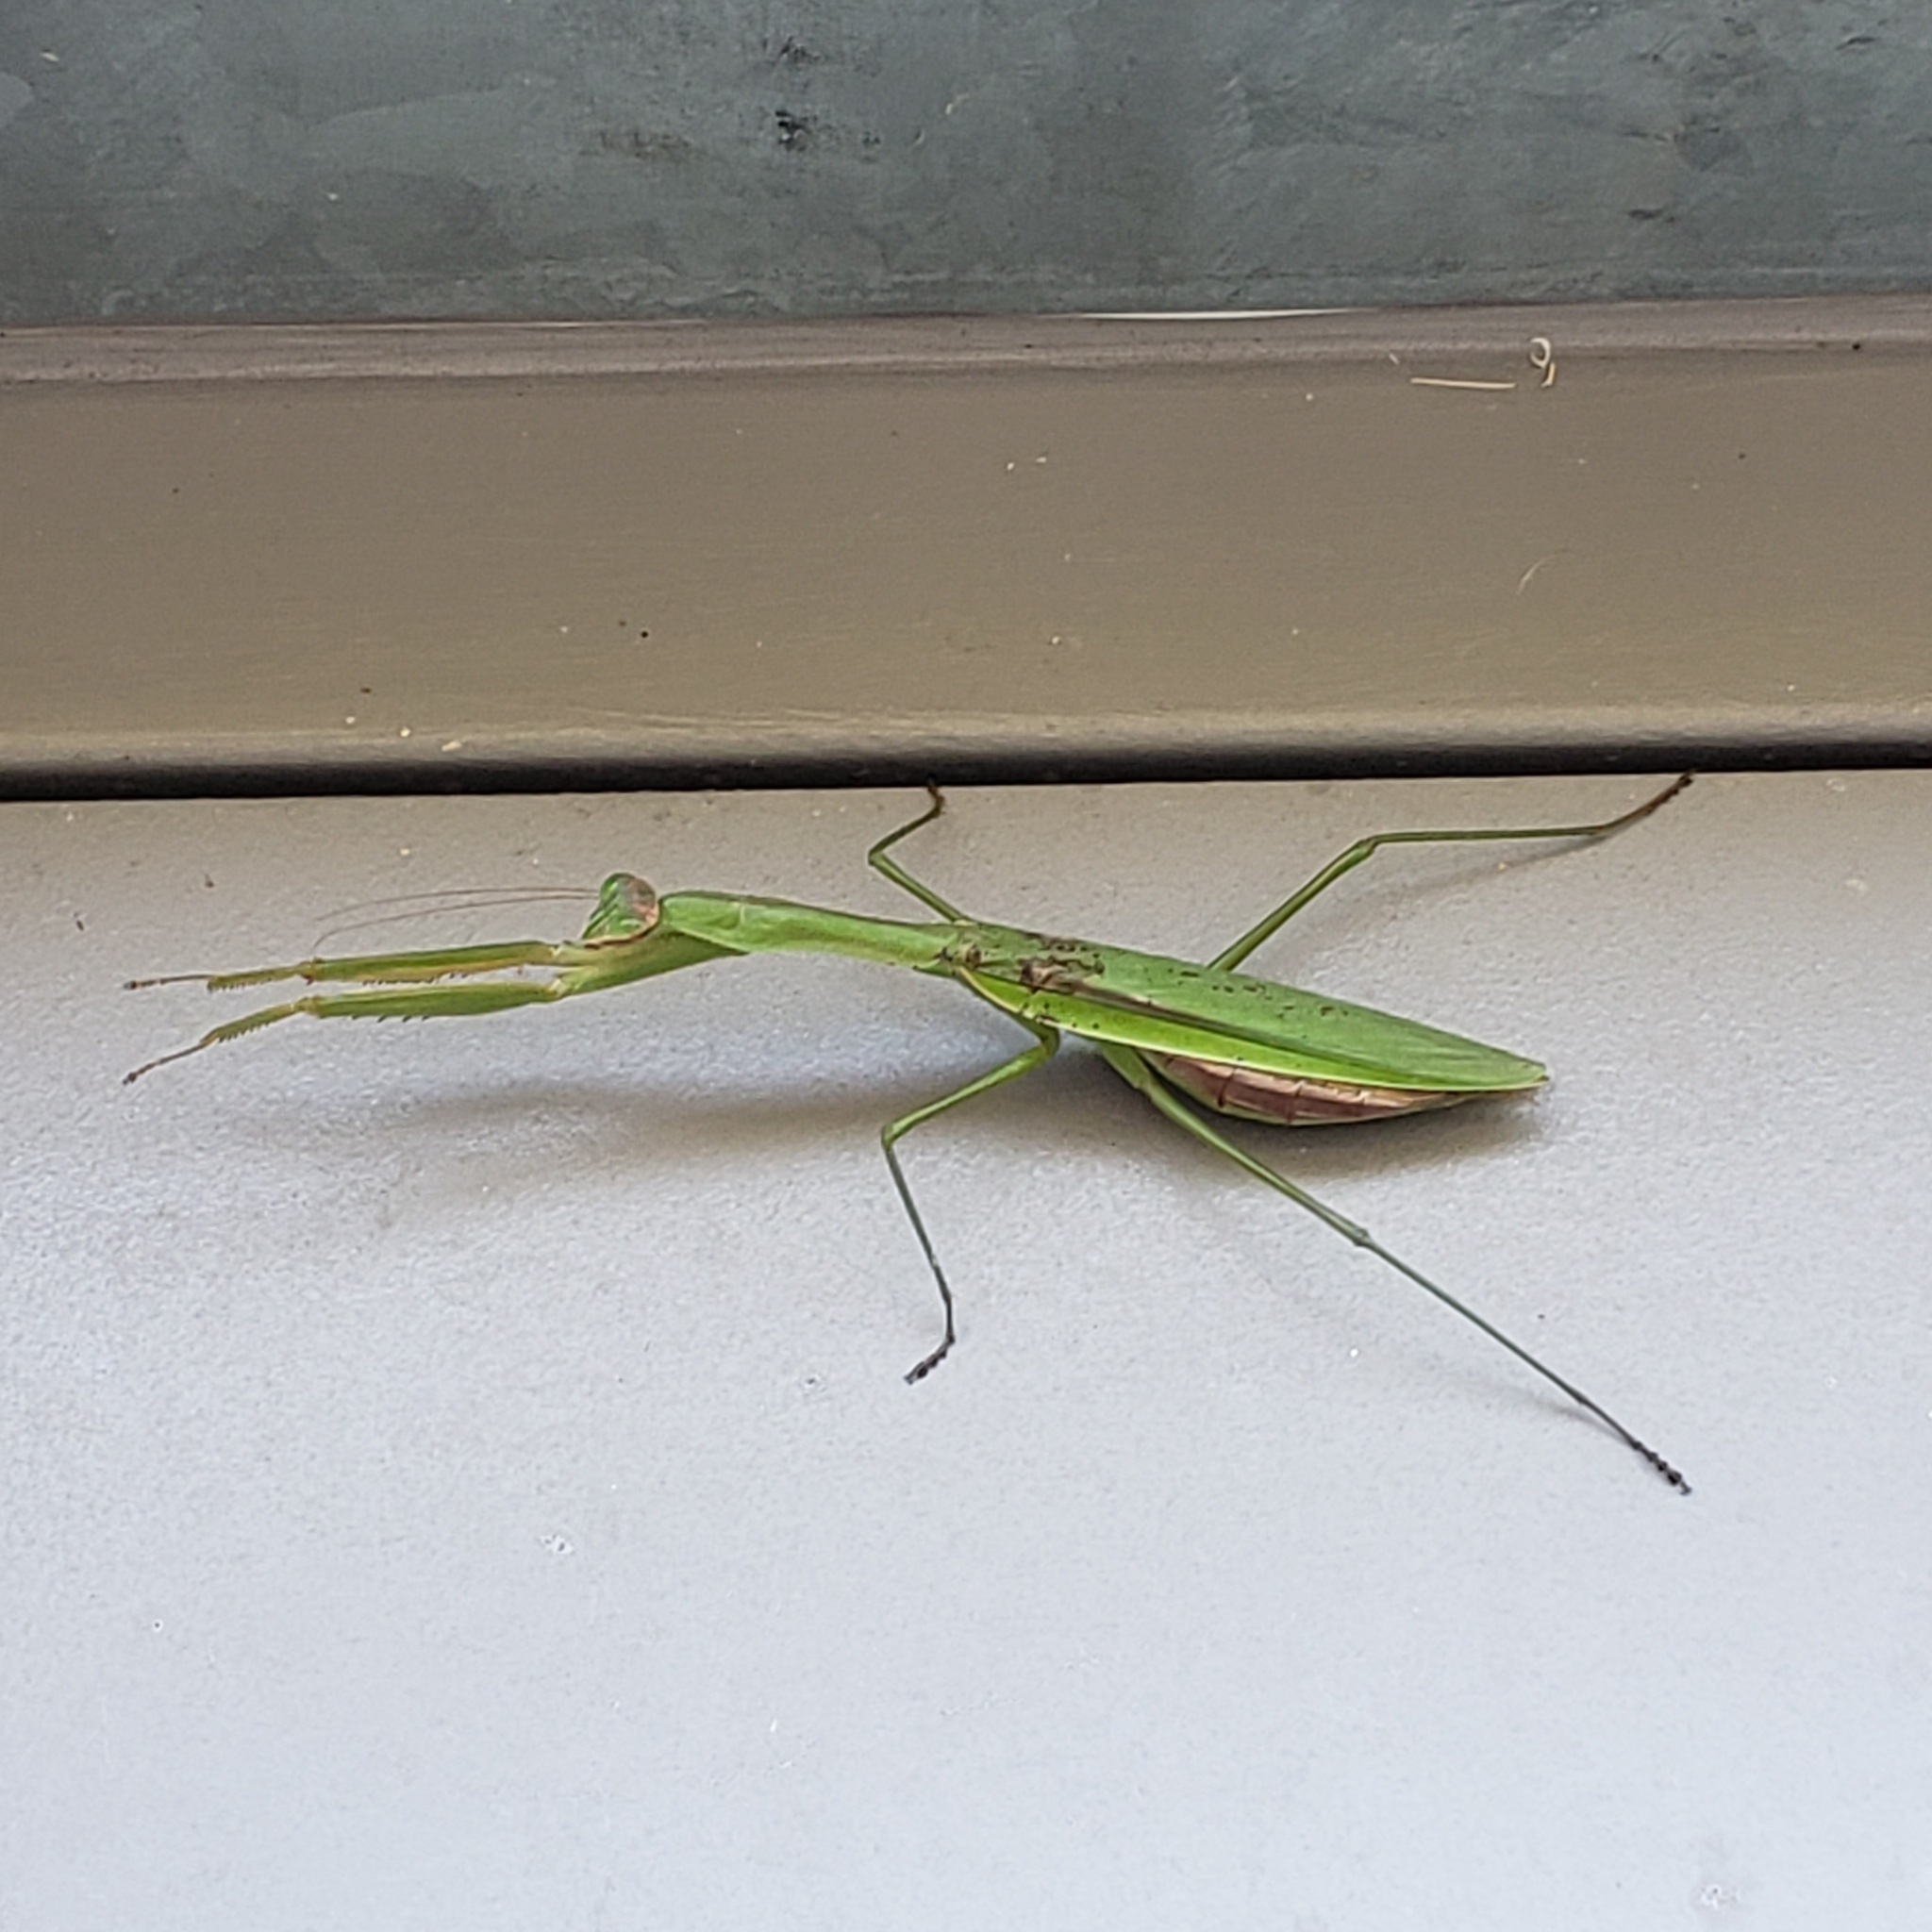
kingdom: Animalia
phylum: Arthropoda
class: Insecta
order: Mantodea
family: Mantidae
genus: Tenodera
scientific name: Tenodera sinensis
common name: Chinese mantis
